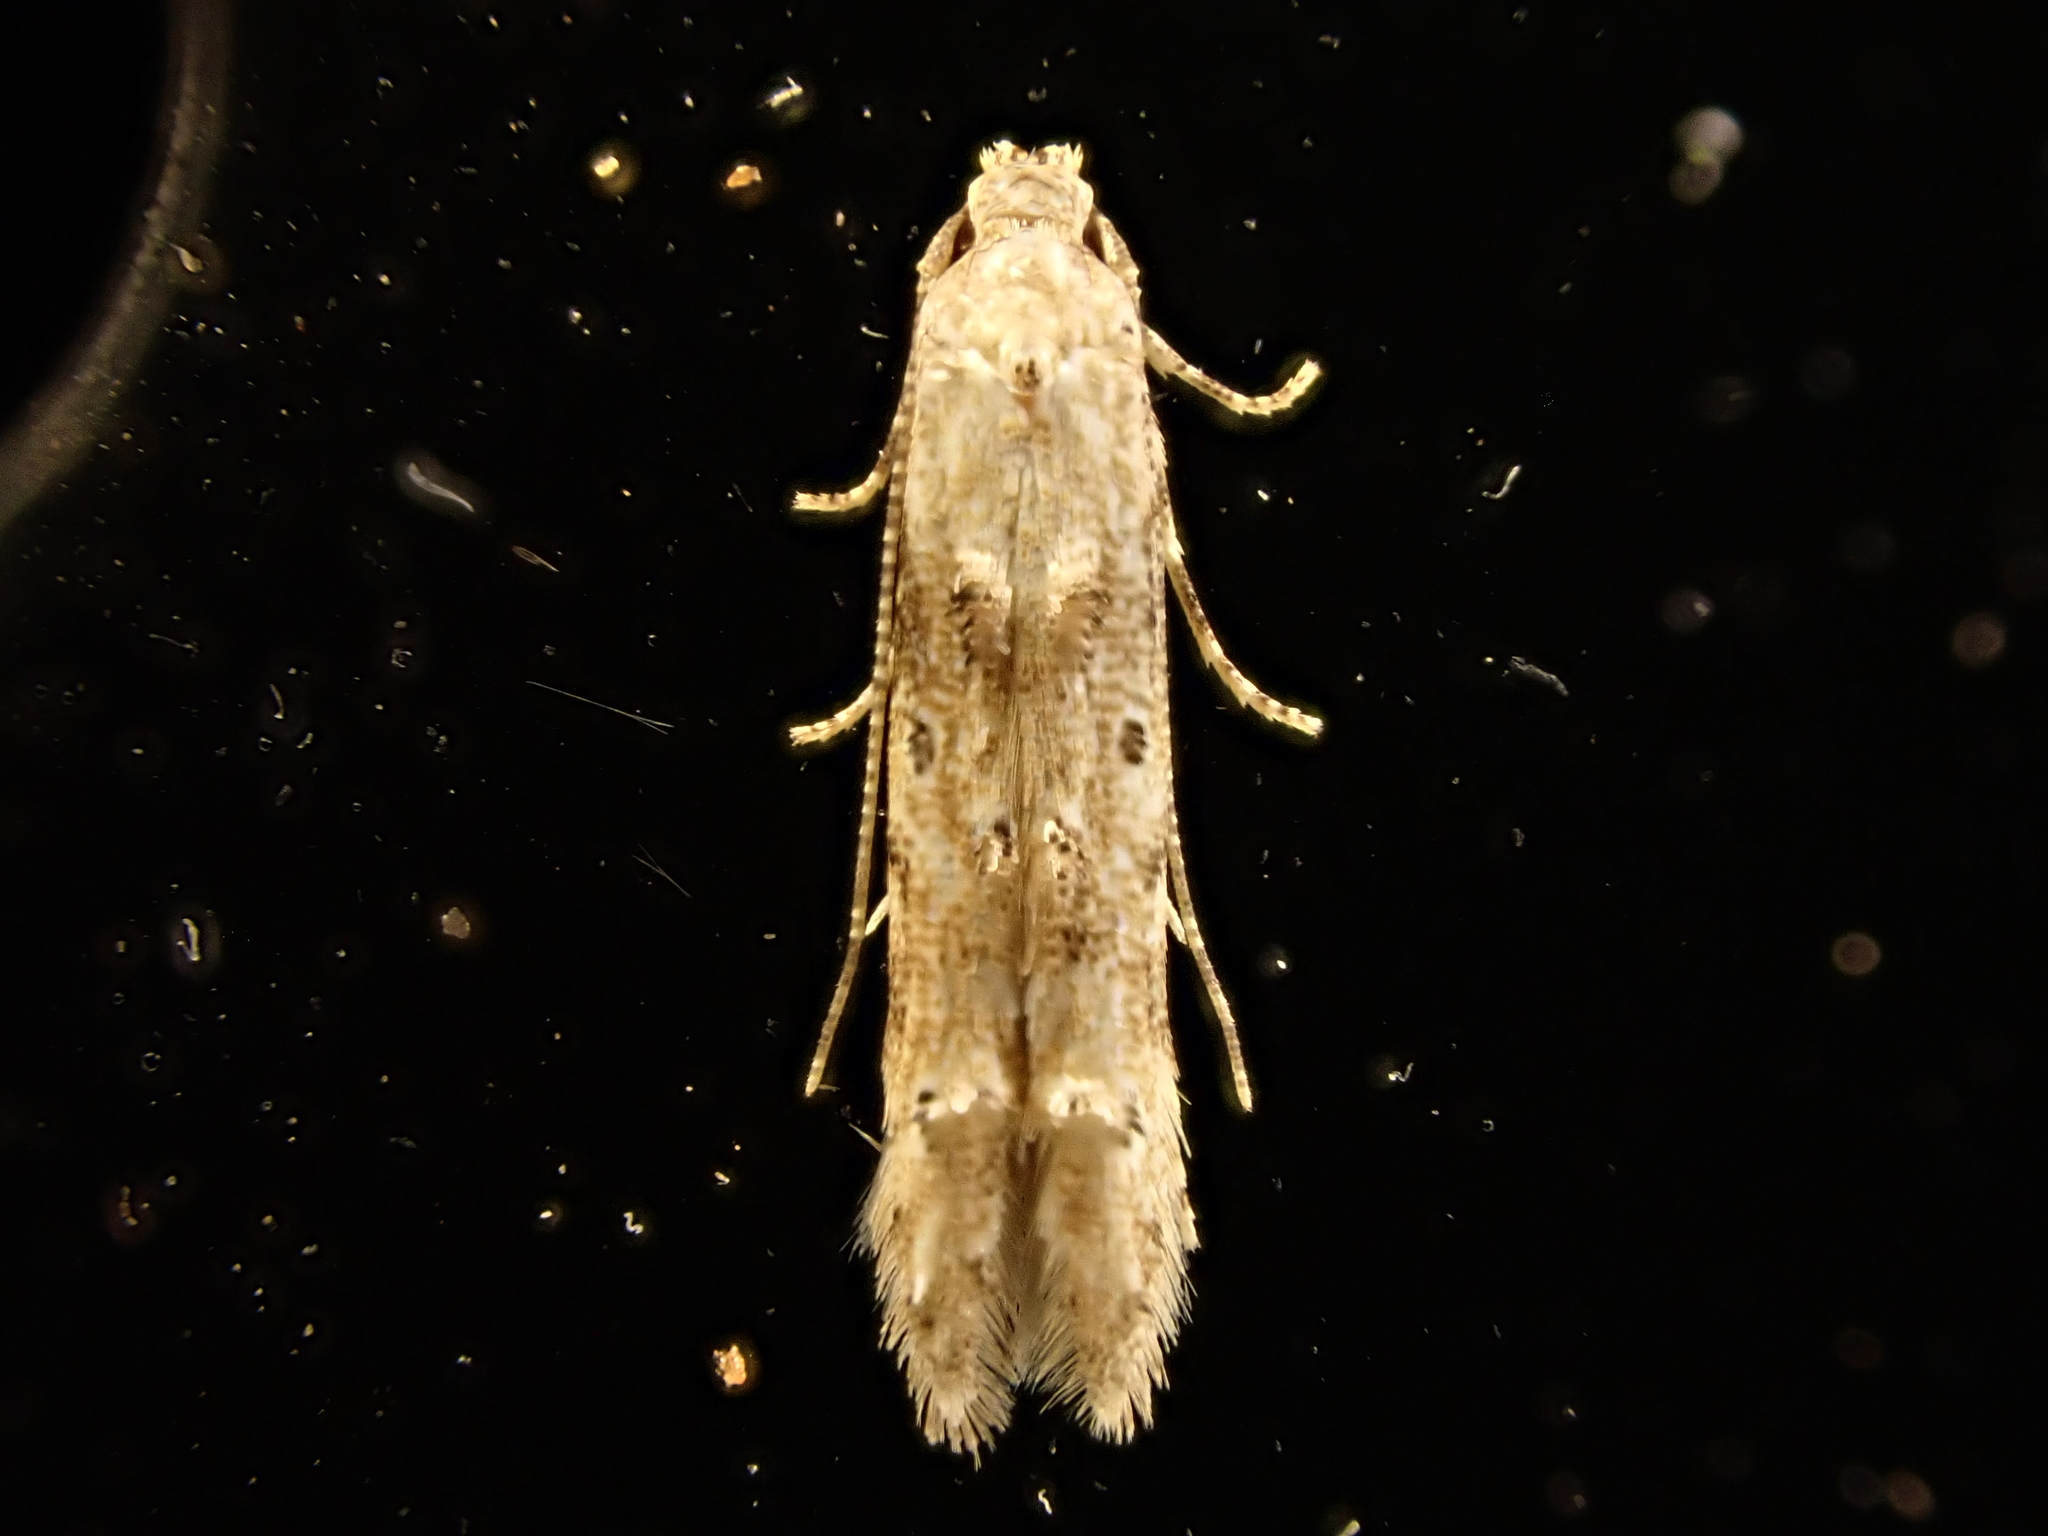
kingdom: Animalia
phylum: Arthropoda
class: Insecta
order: Lepidoptera
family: Elachistidae
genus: Microcolona
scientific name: Microcolona limodes
